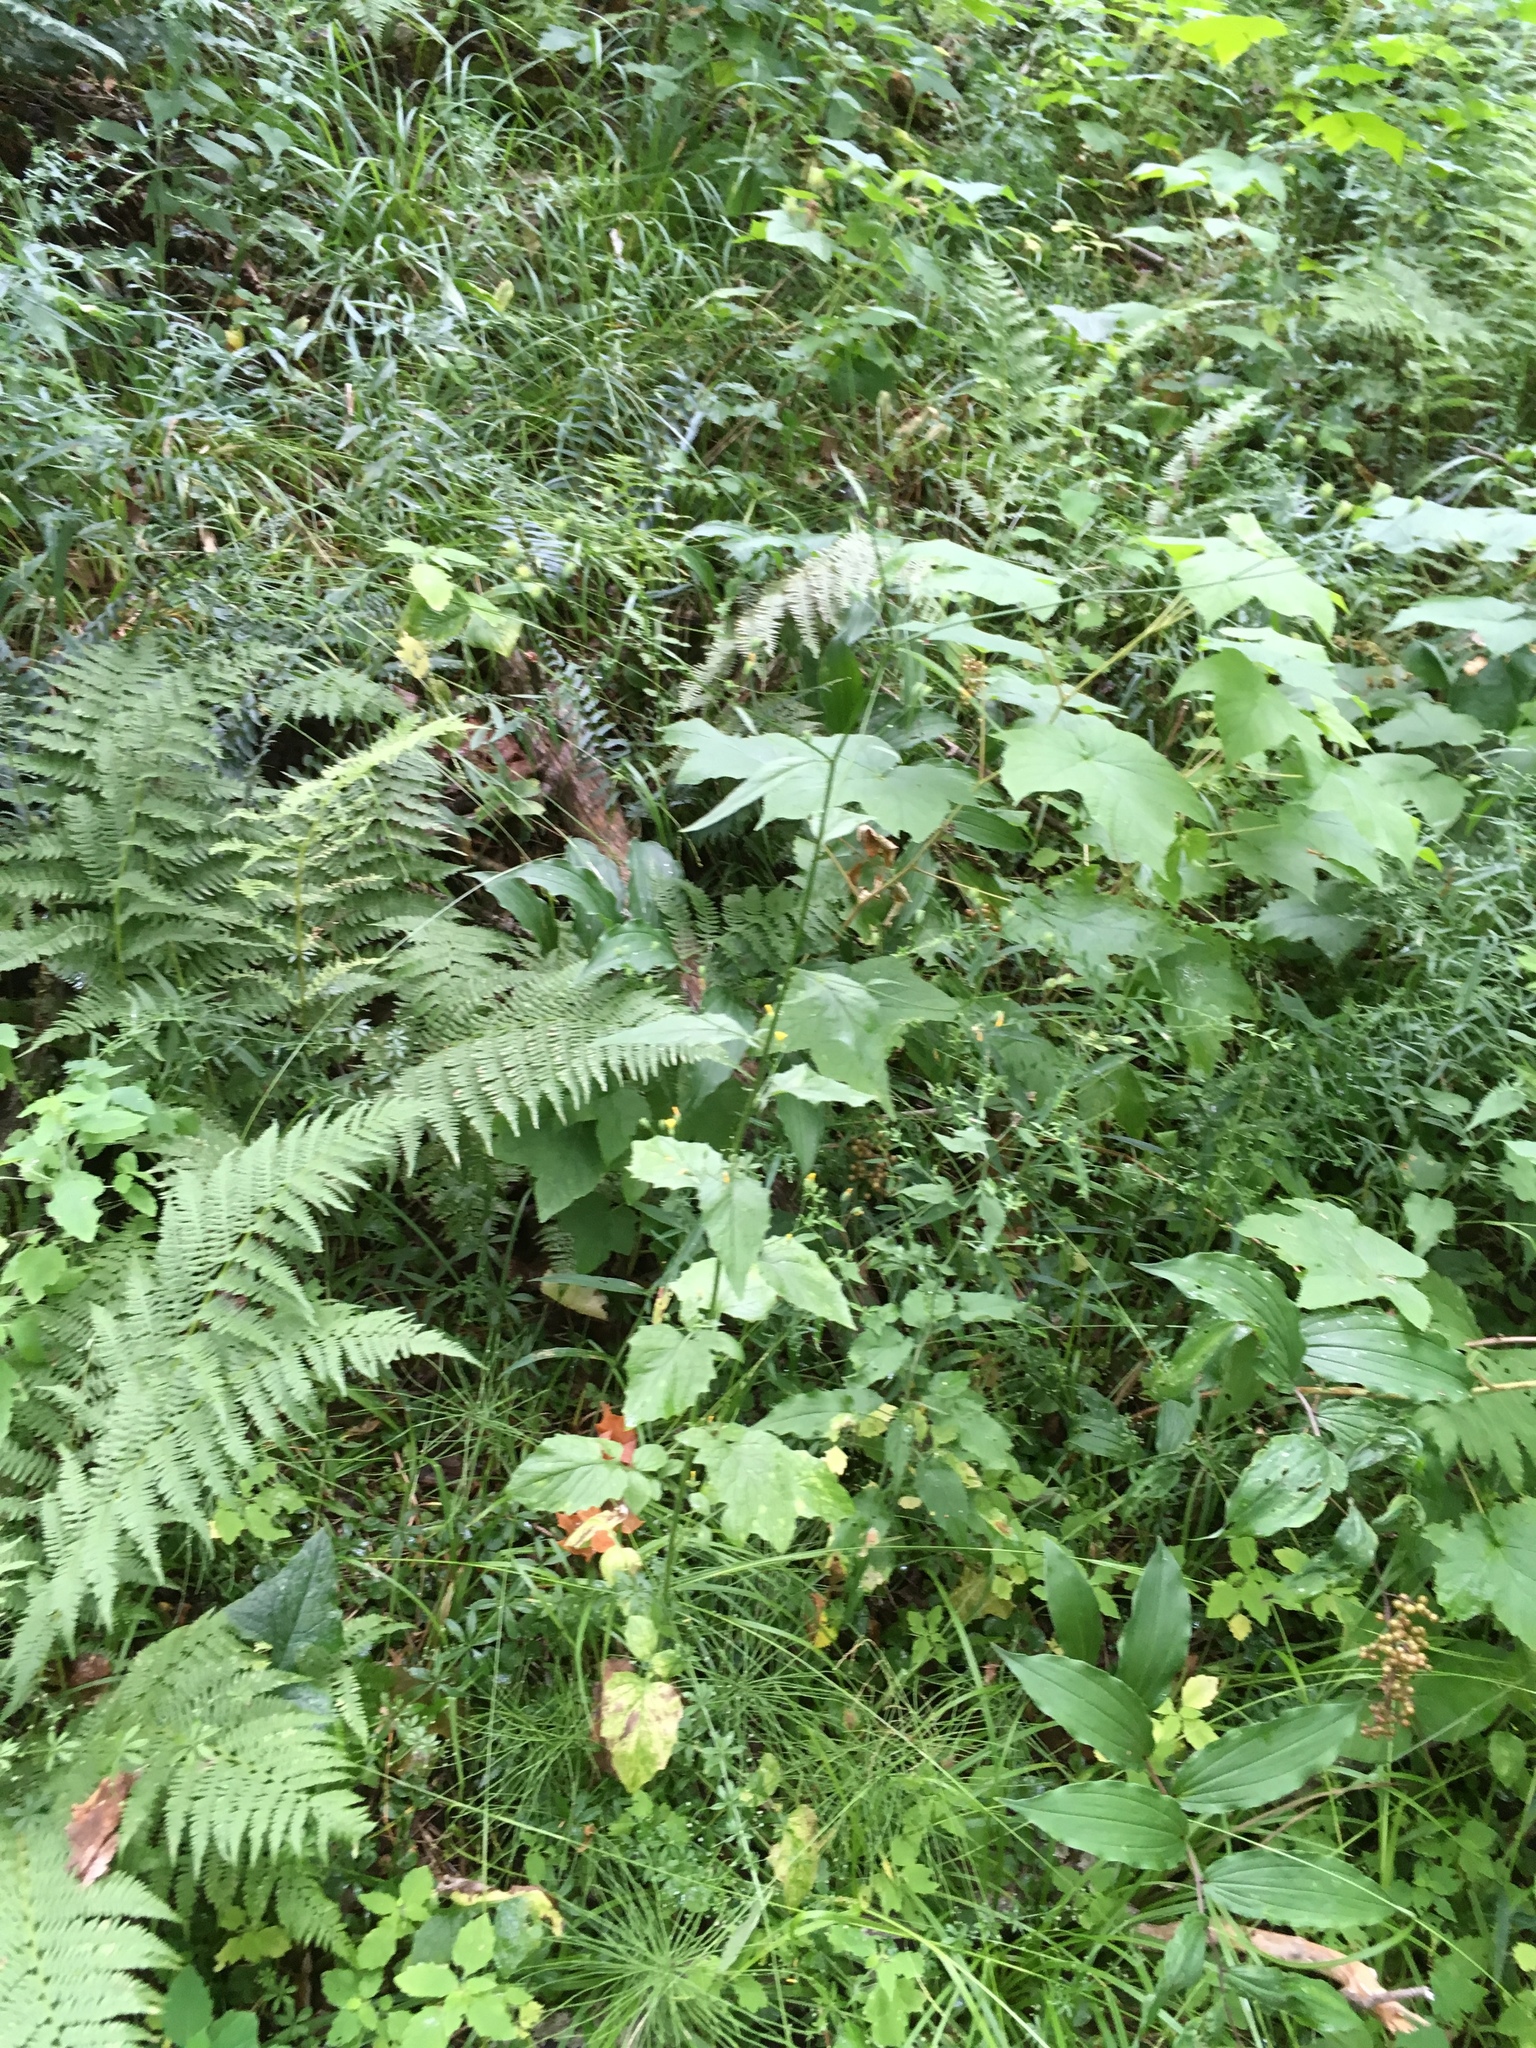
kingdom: Plantae
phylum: Tracheophyta
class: Magnoliopsida
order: Asterales
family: Asteraceae
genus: Lapsana
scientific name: Lapsana communis
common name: Nipplewort
